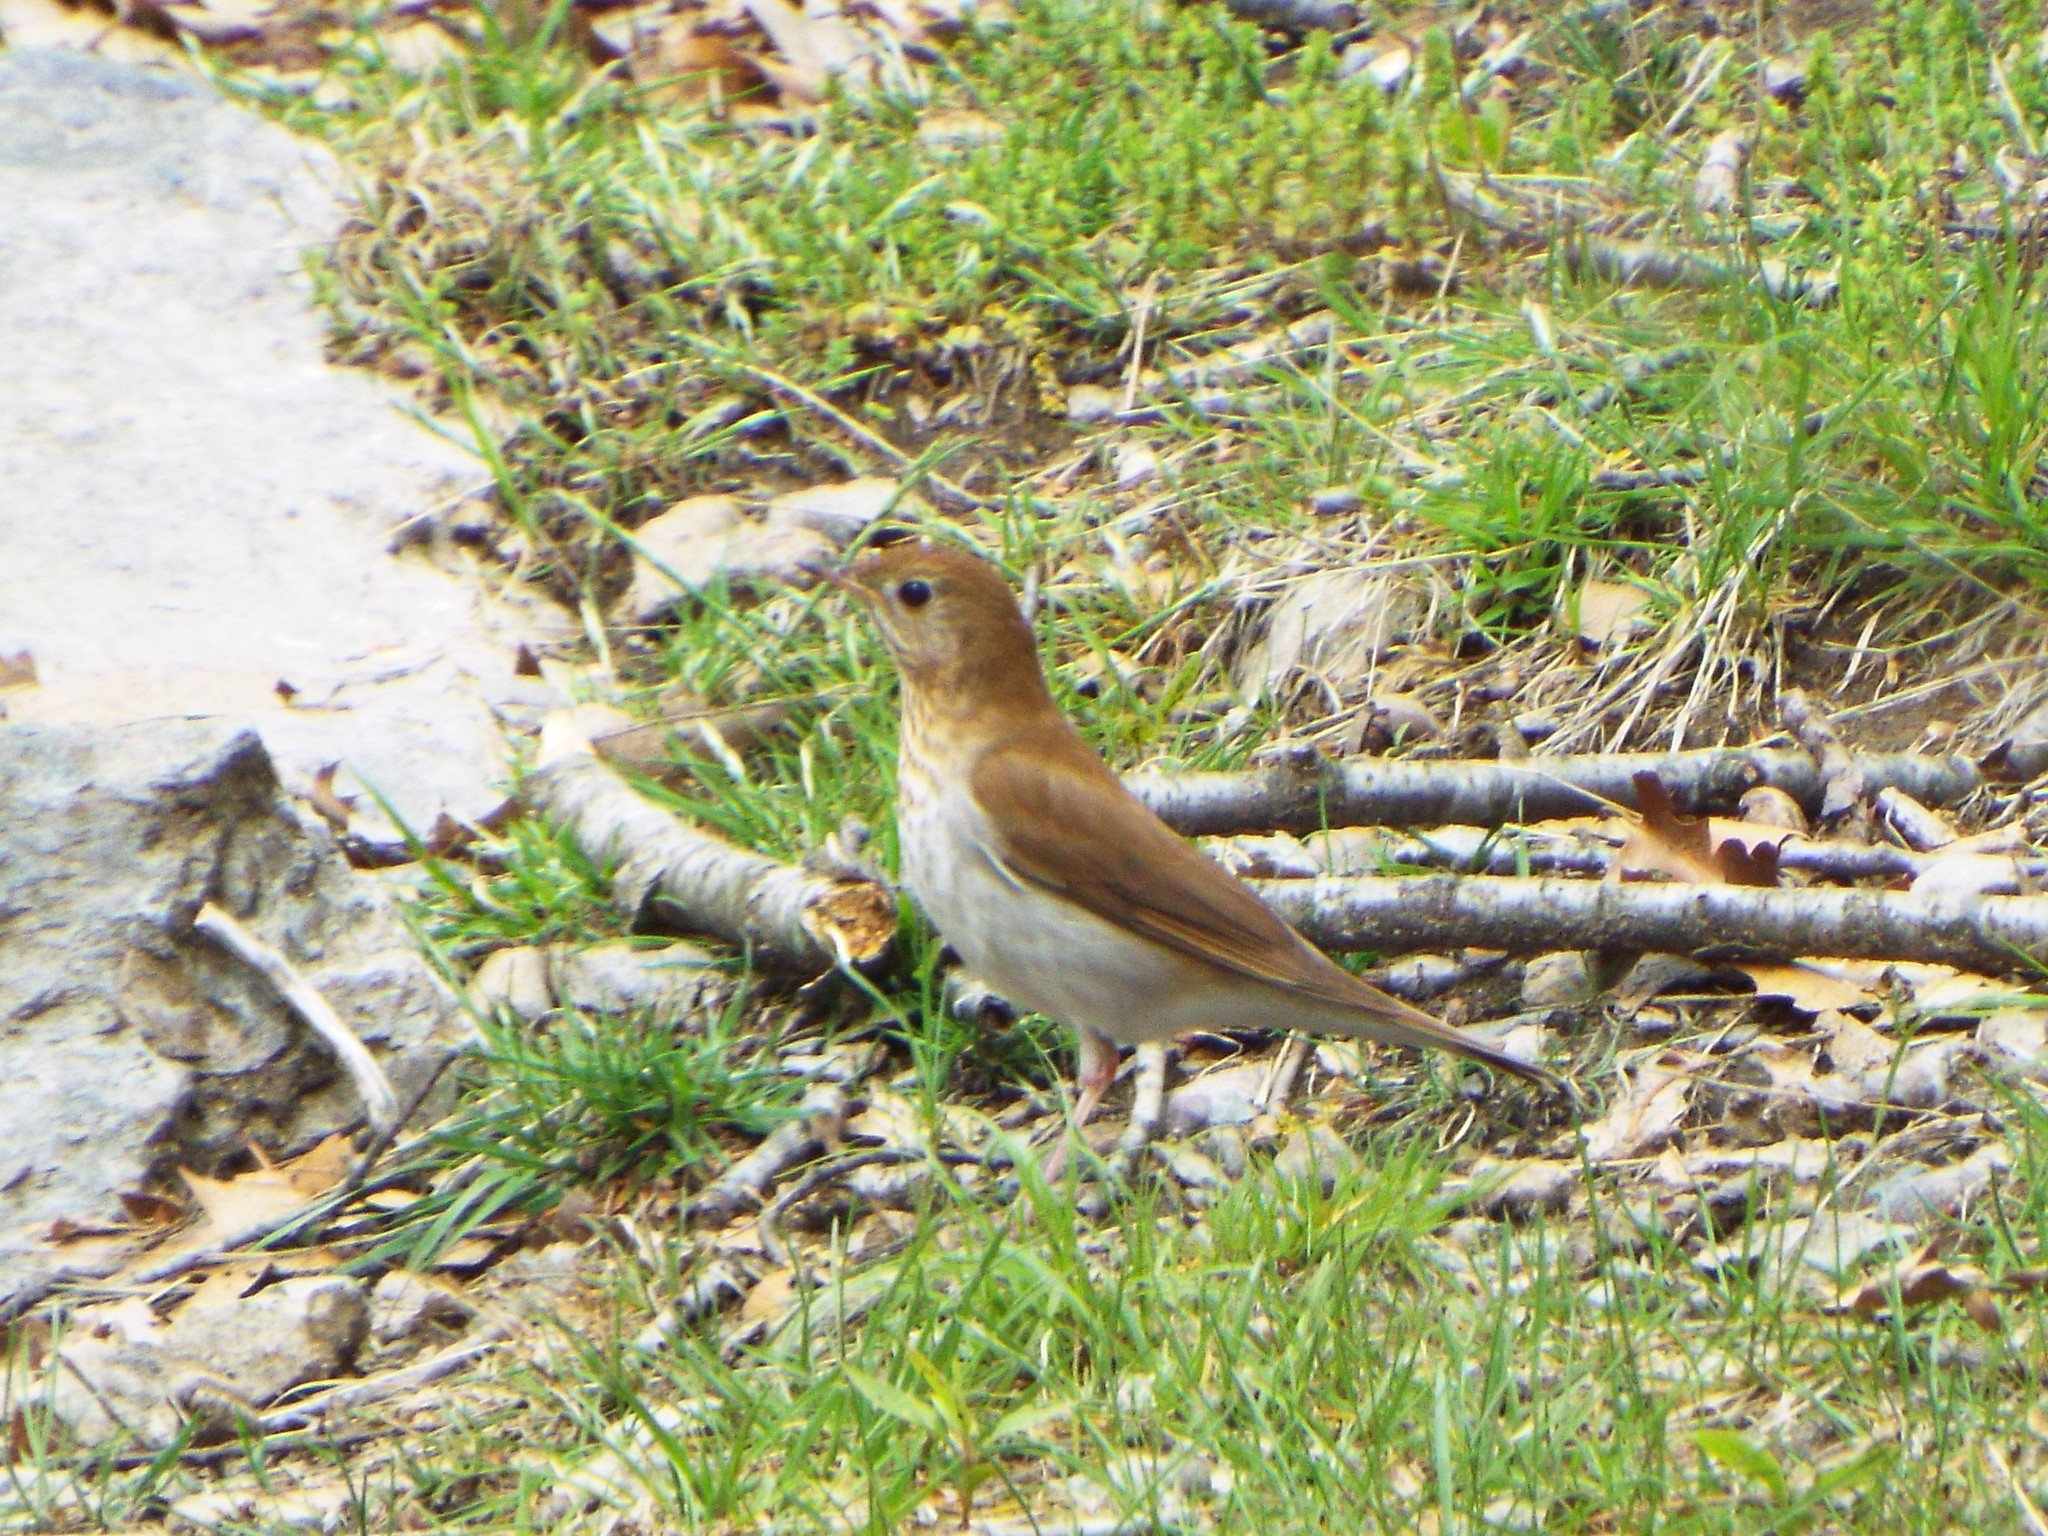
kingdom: Animalia
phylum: Chordata
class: Aves
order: Passeriformes
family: Turdidae
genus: Catharus
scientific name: Catharus fuscescens
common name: Veery
